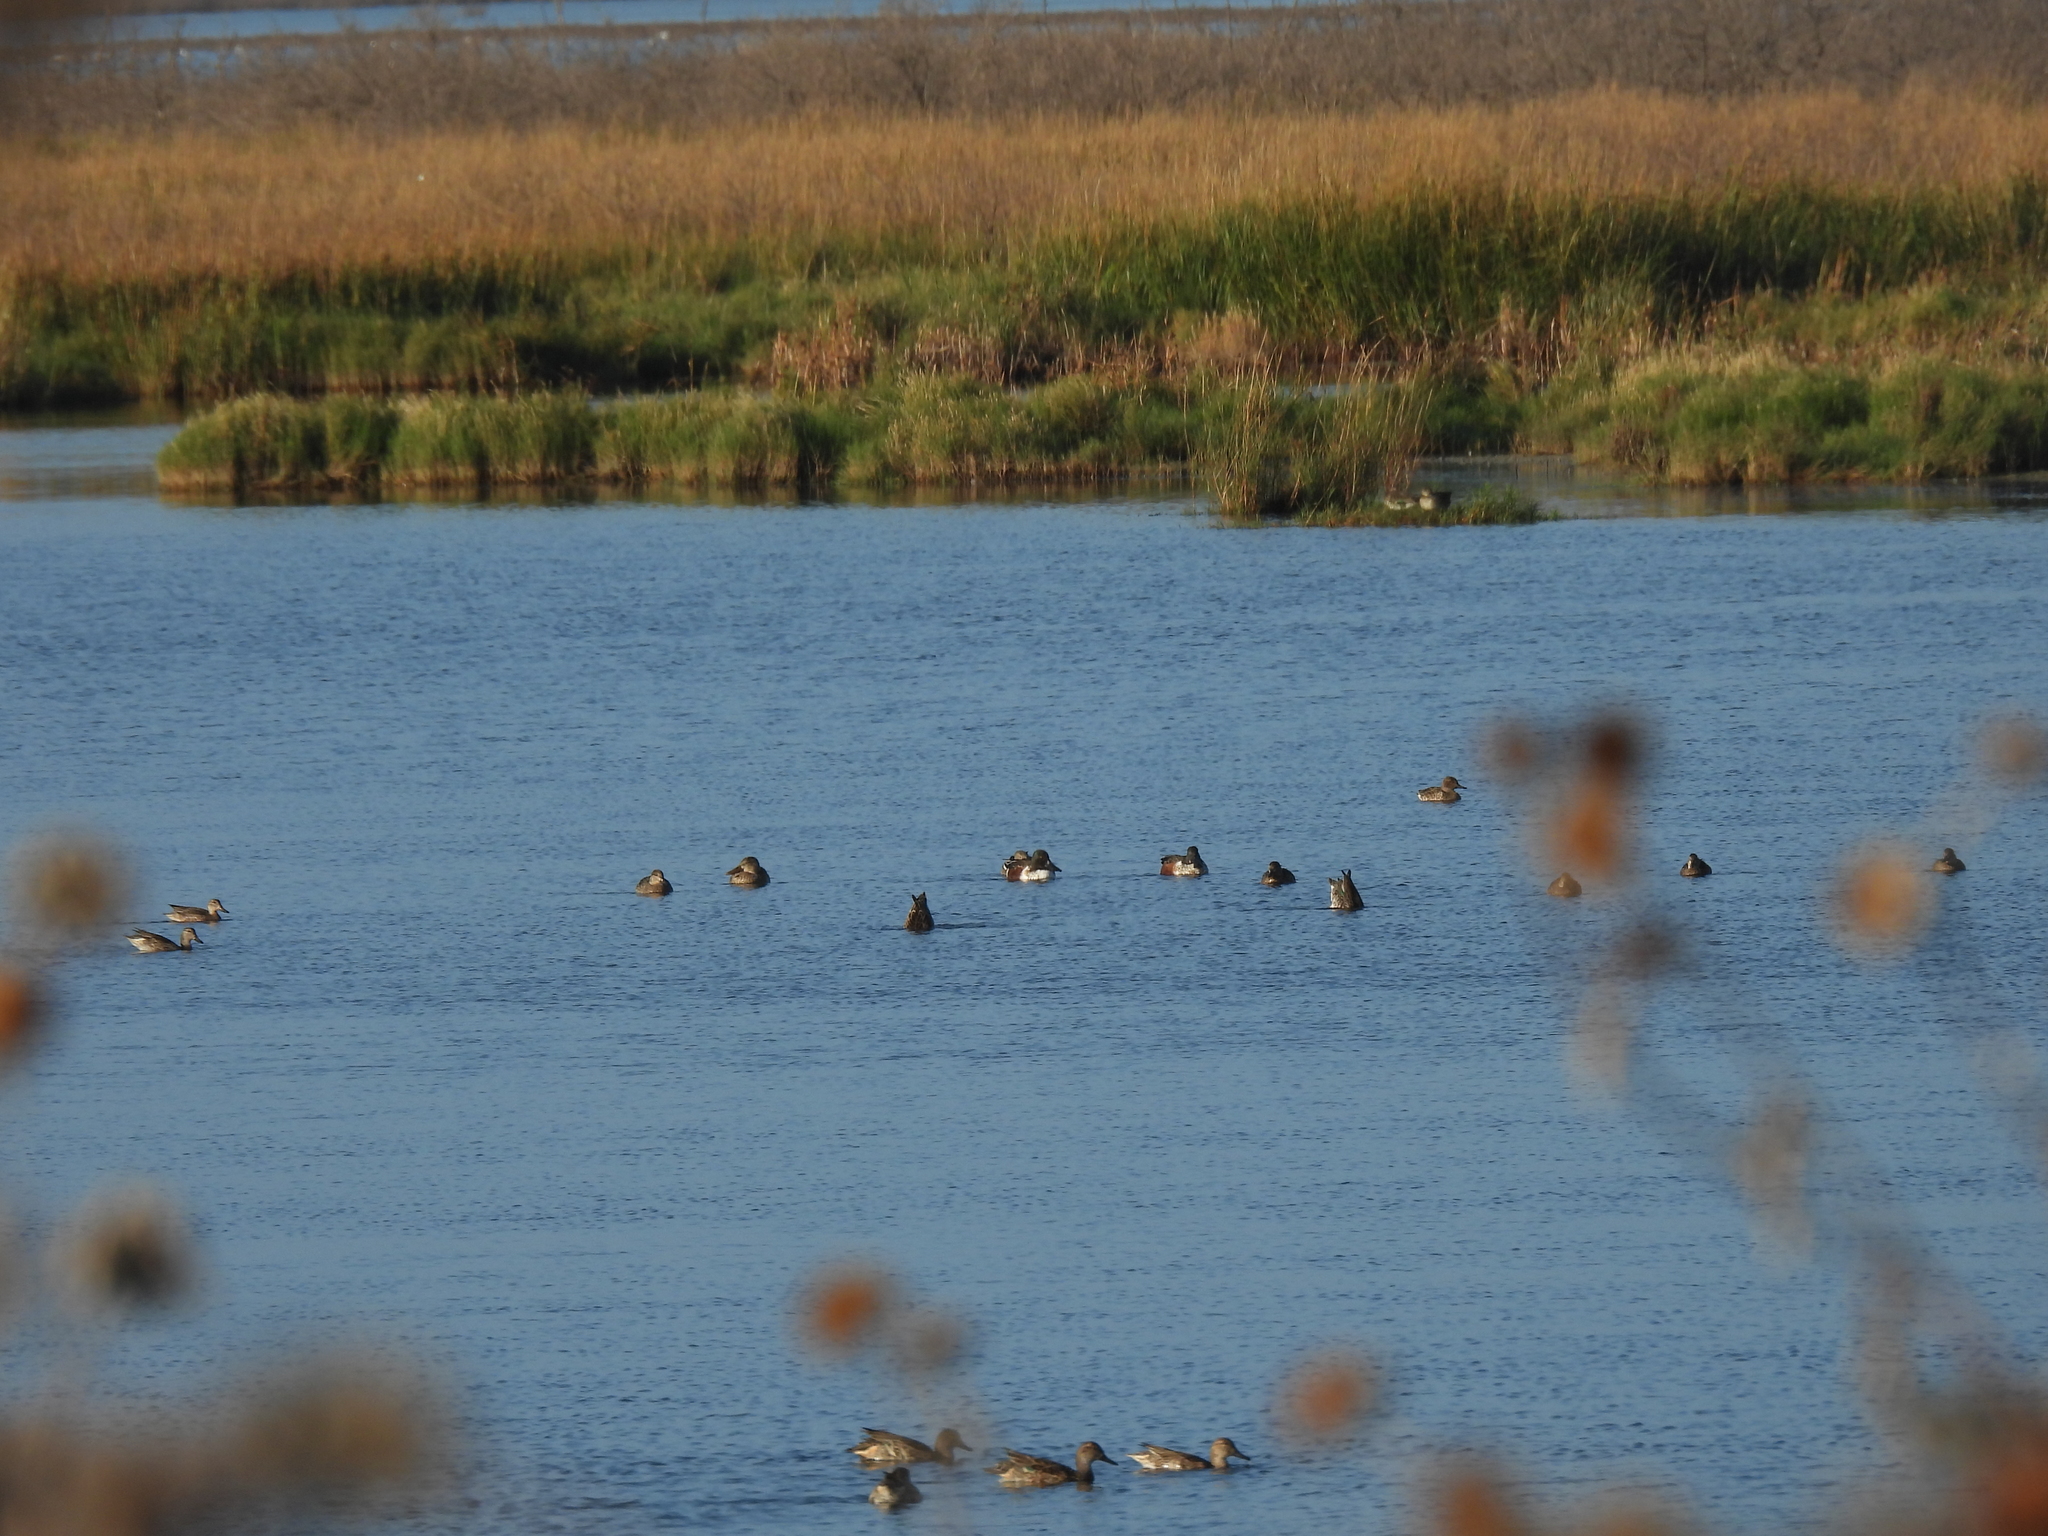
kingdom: Animalia
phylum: Chordata
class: Aves
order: Anseriformes
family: Anatidae
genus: Spatula
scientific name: Spatula clypeata
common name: Northern shoveler
